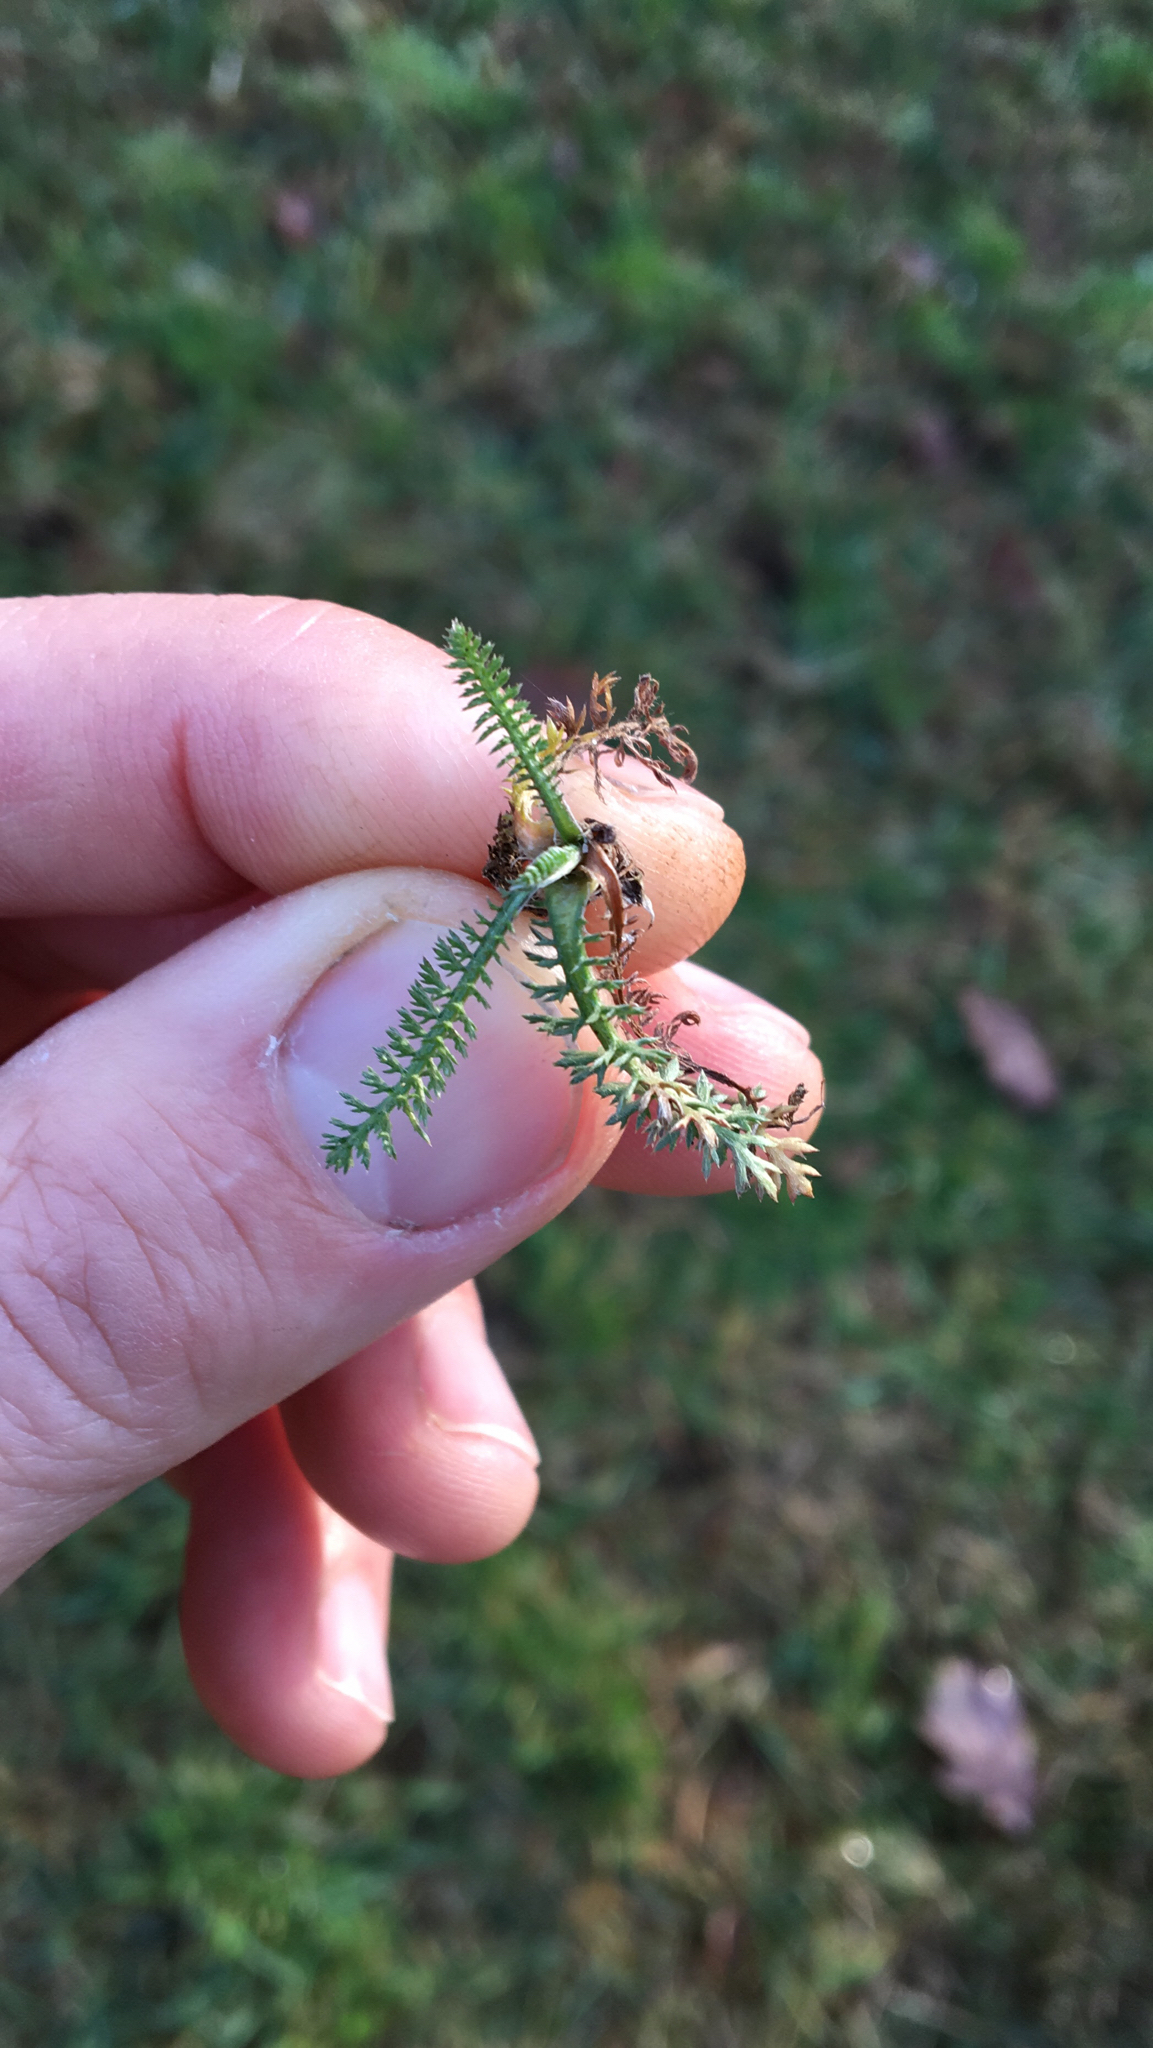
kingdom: Plantae
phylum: Tracheophyta
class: Magnoliopsida
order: Asterales
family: Asteraceae
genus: Achillea
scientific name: Achillea millefolium
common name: Yarrow
